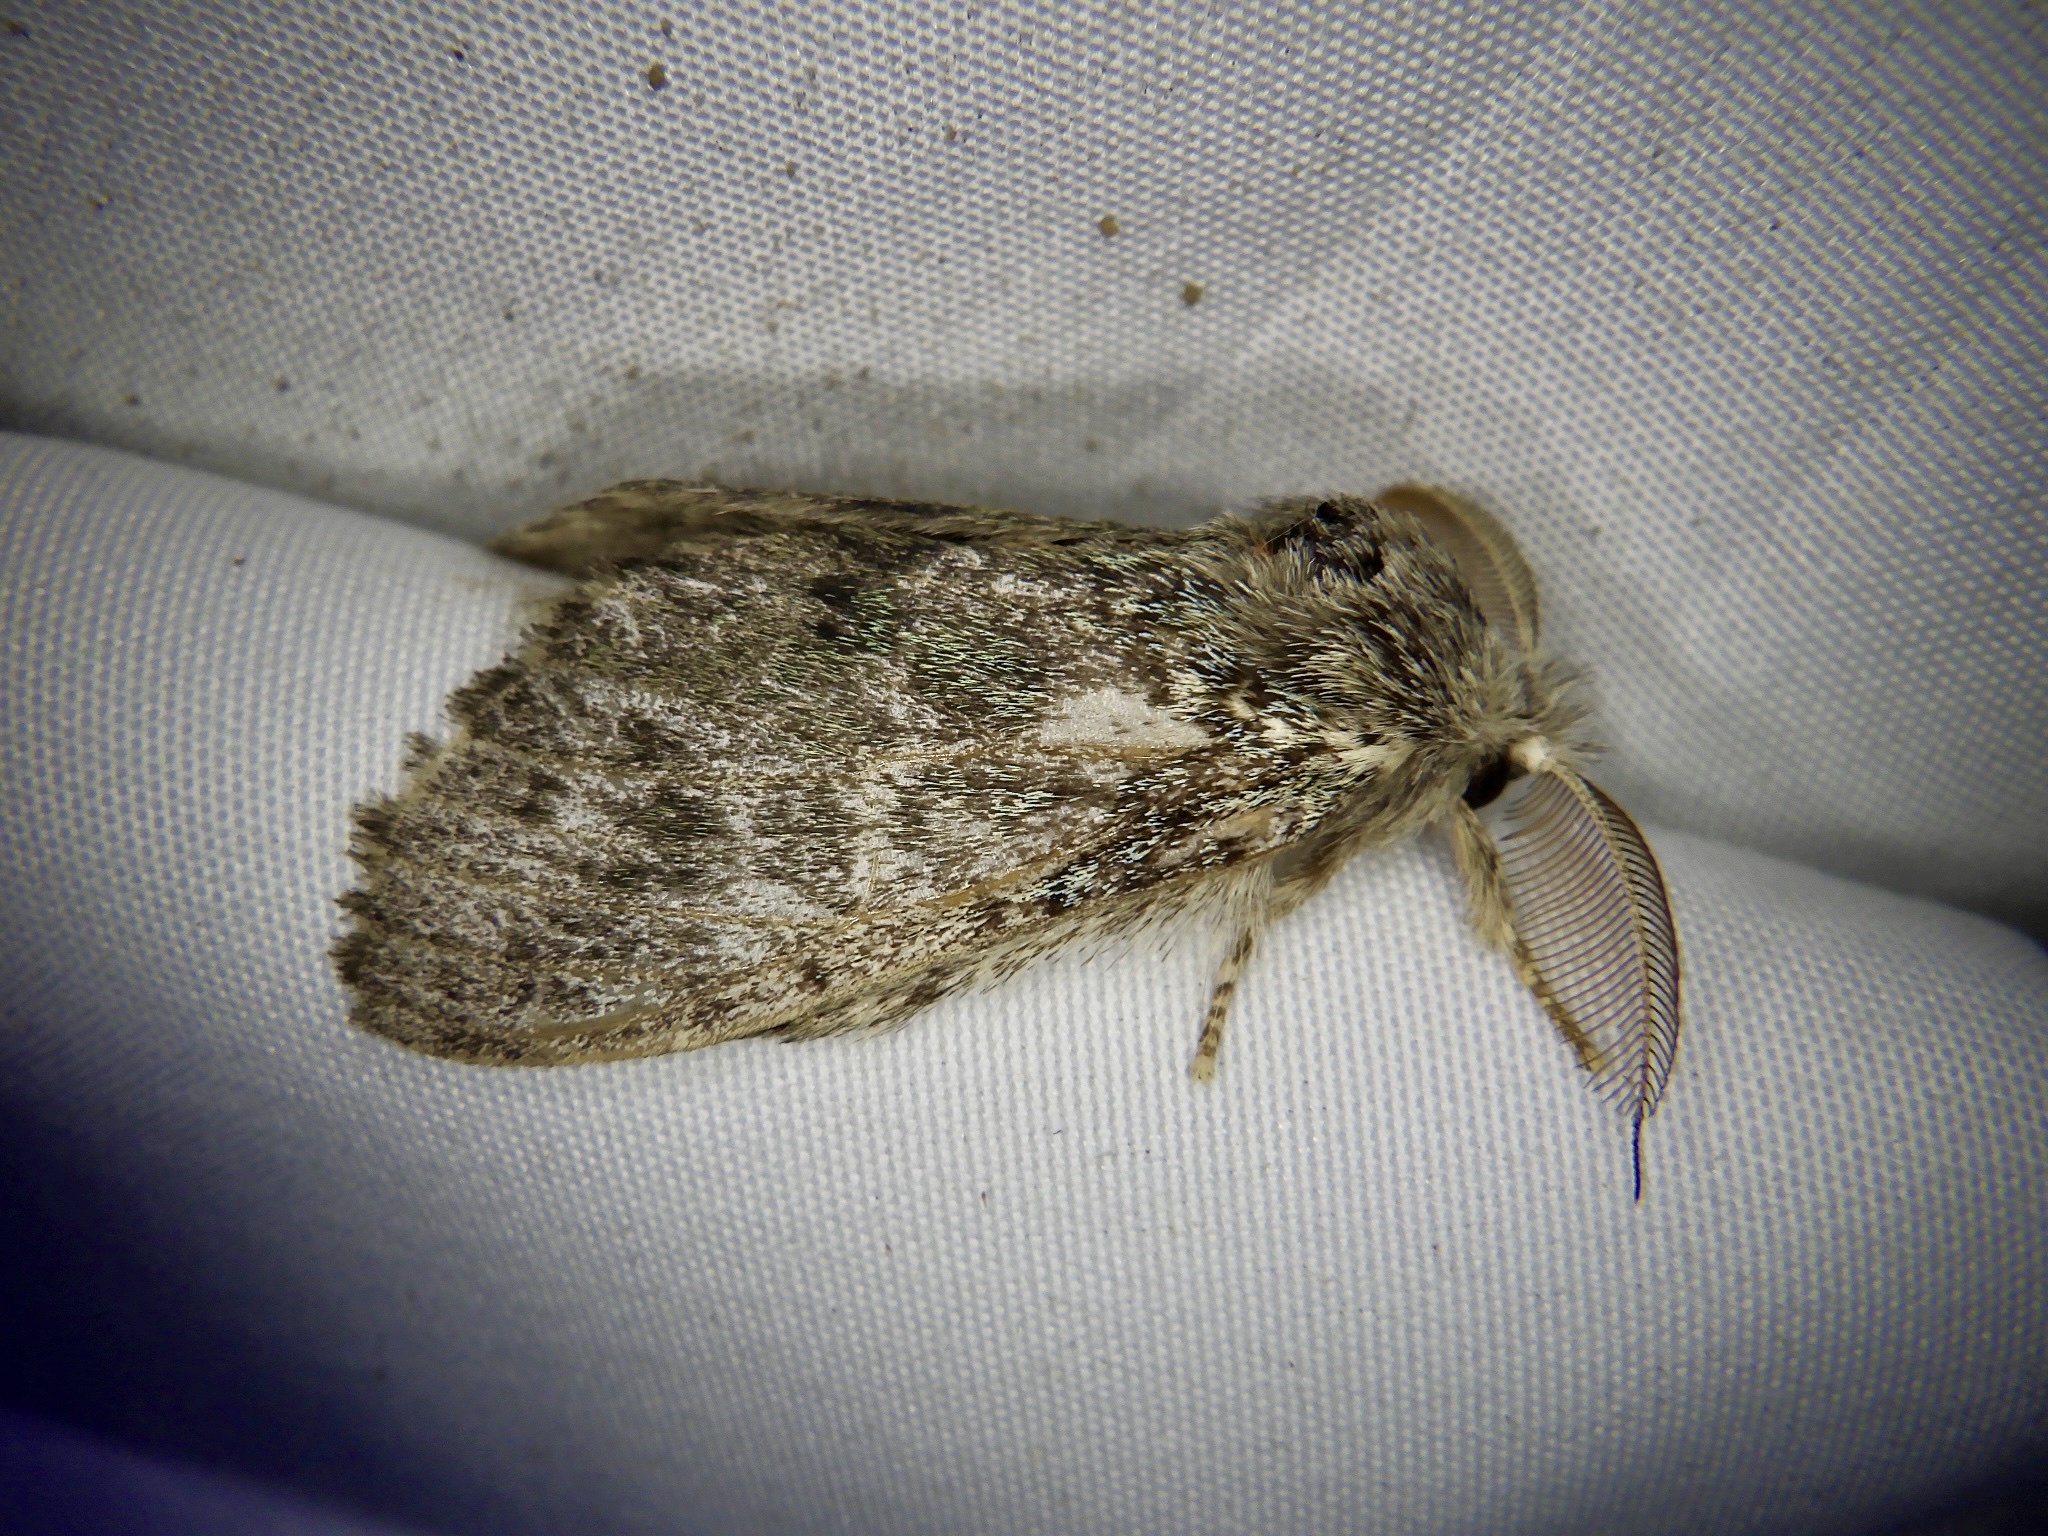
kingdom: Animalia
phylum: Arthropoda
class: Insecta
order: Lepidoptera
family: Notodontidae
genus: Syntypistis
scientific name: Syntypistis punctatella
